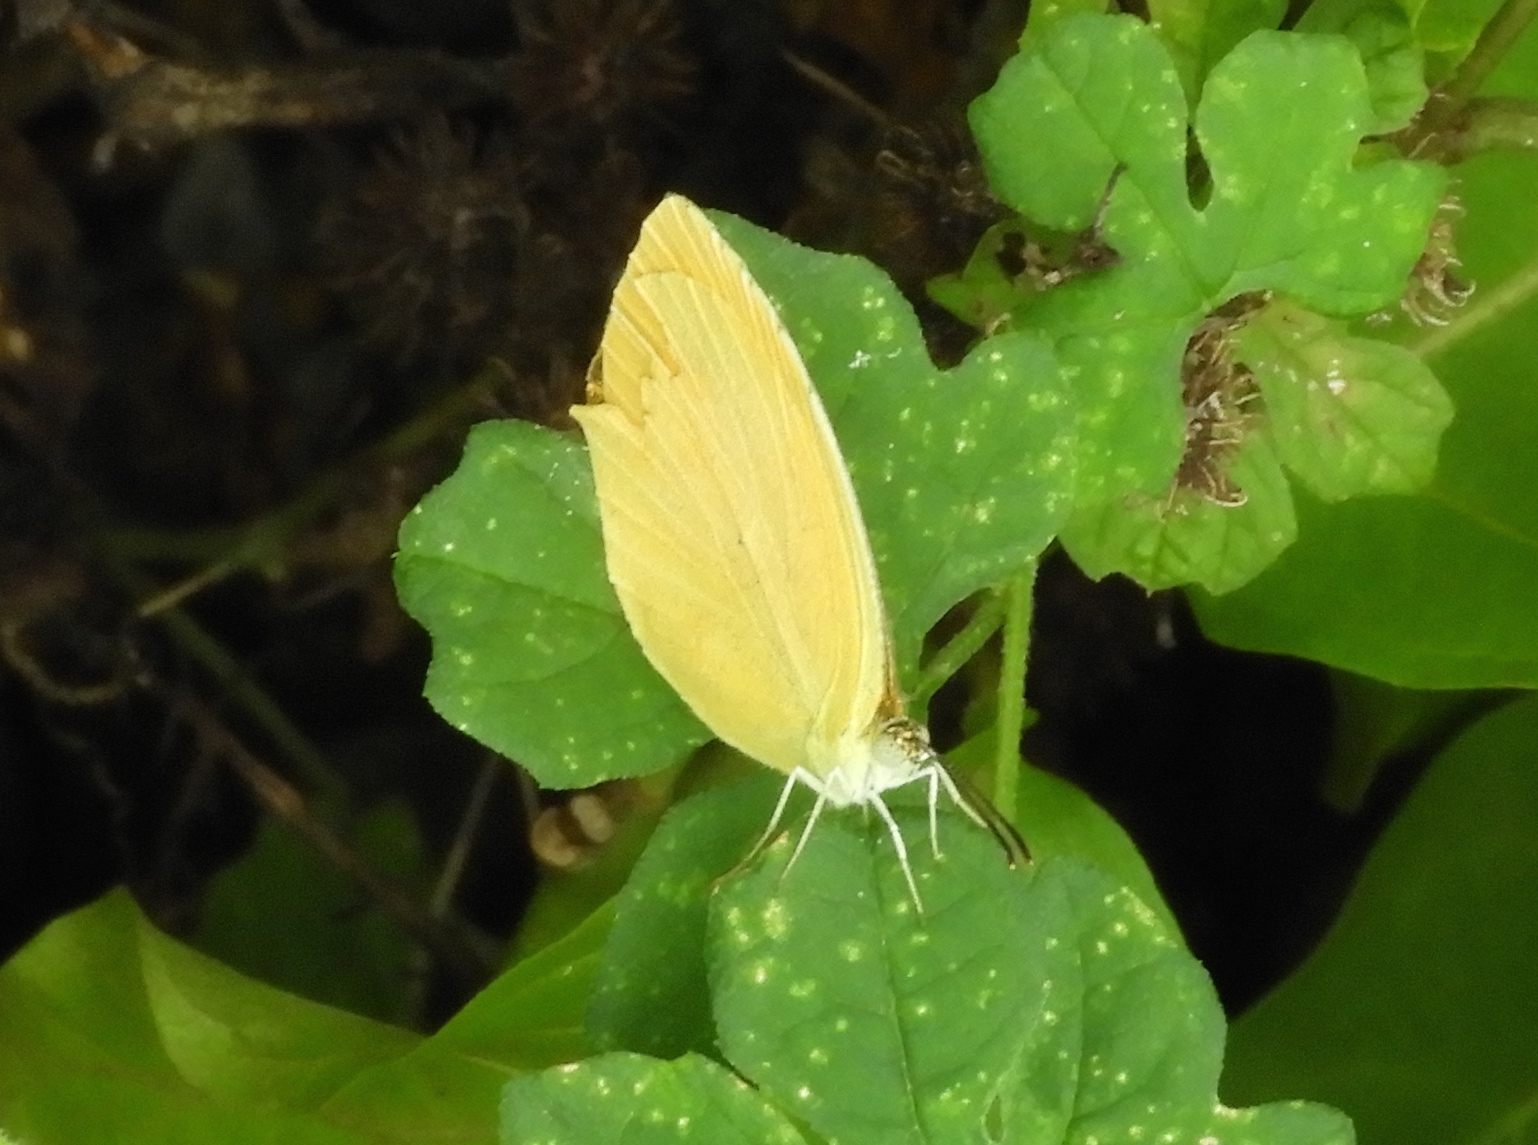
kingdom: Animalia
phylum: Arthropoda
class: Insecta
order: Lepidoptera
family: Pieridae
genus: Pyrisitia
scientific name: Pyrisitia proterpia
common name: Tailed orange
